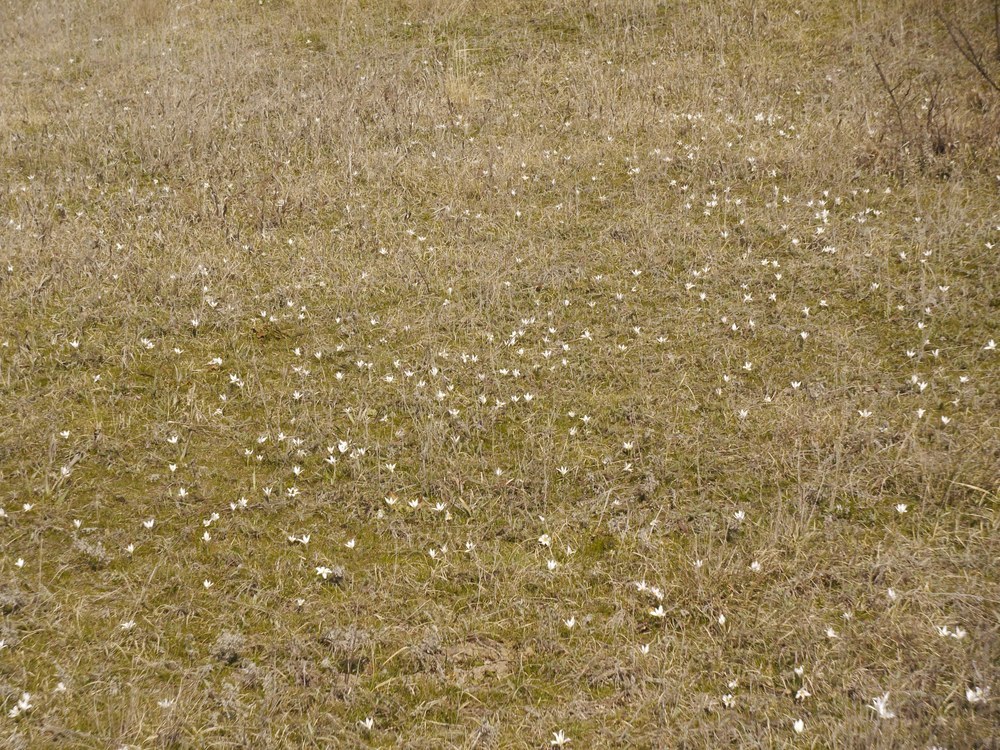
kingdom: Plantae
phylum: Tracheophyta
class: Liliopsida
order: Asparagales
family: Iridaceae
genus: Crocus
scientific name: Crocus reticulatus
